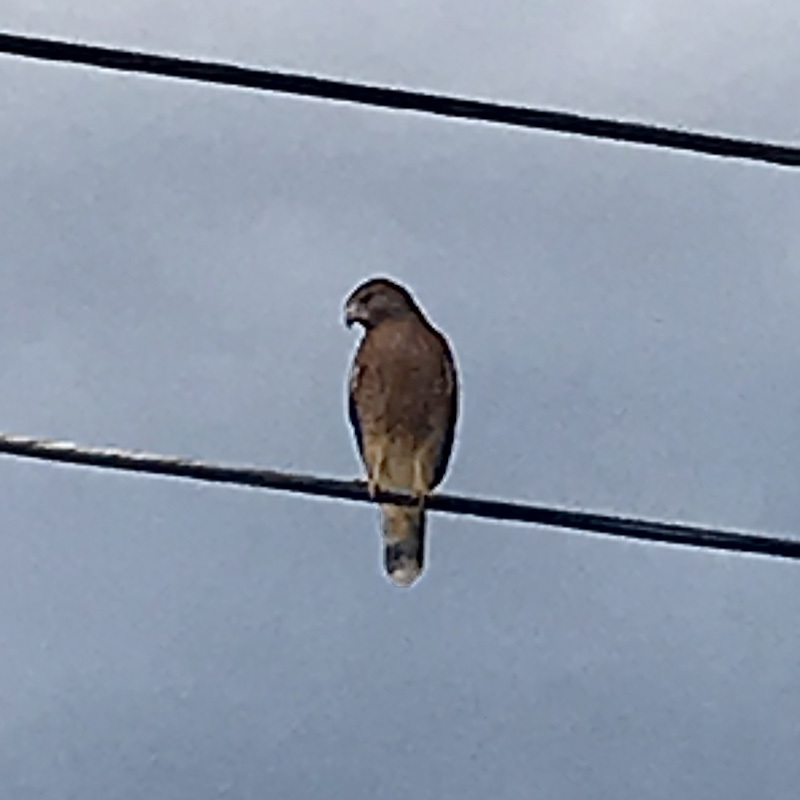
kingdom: Animalia
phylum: Chordata
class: Aves
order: Accipitriformes
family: Accipitridae
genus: Buteo
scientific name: Buteo lineatus
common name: Red-shouldered hawk
